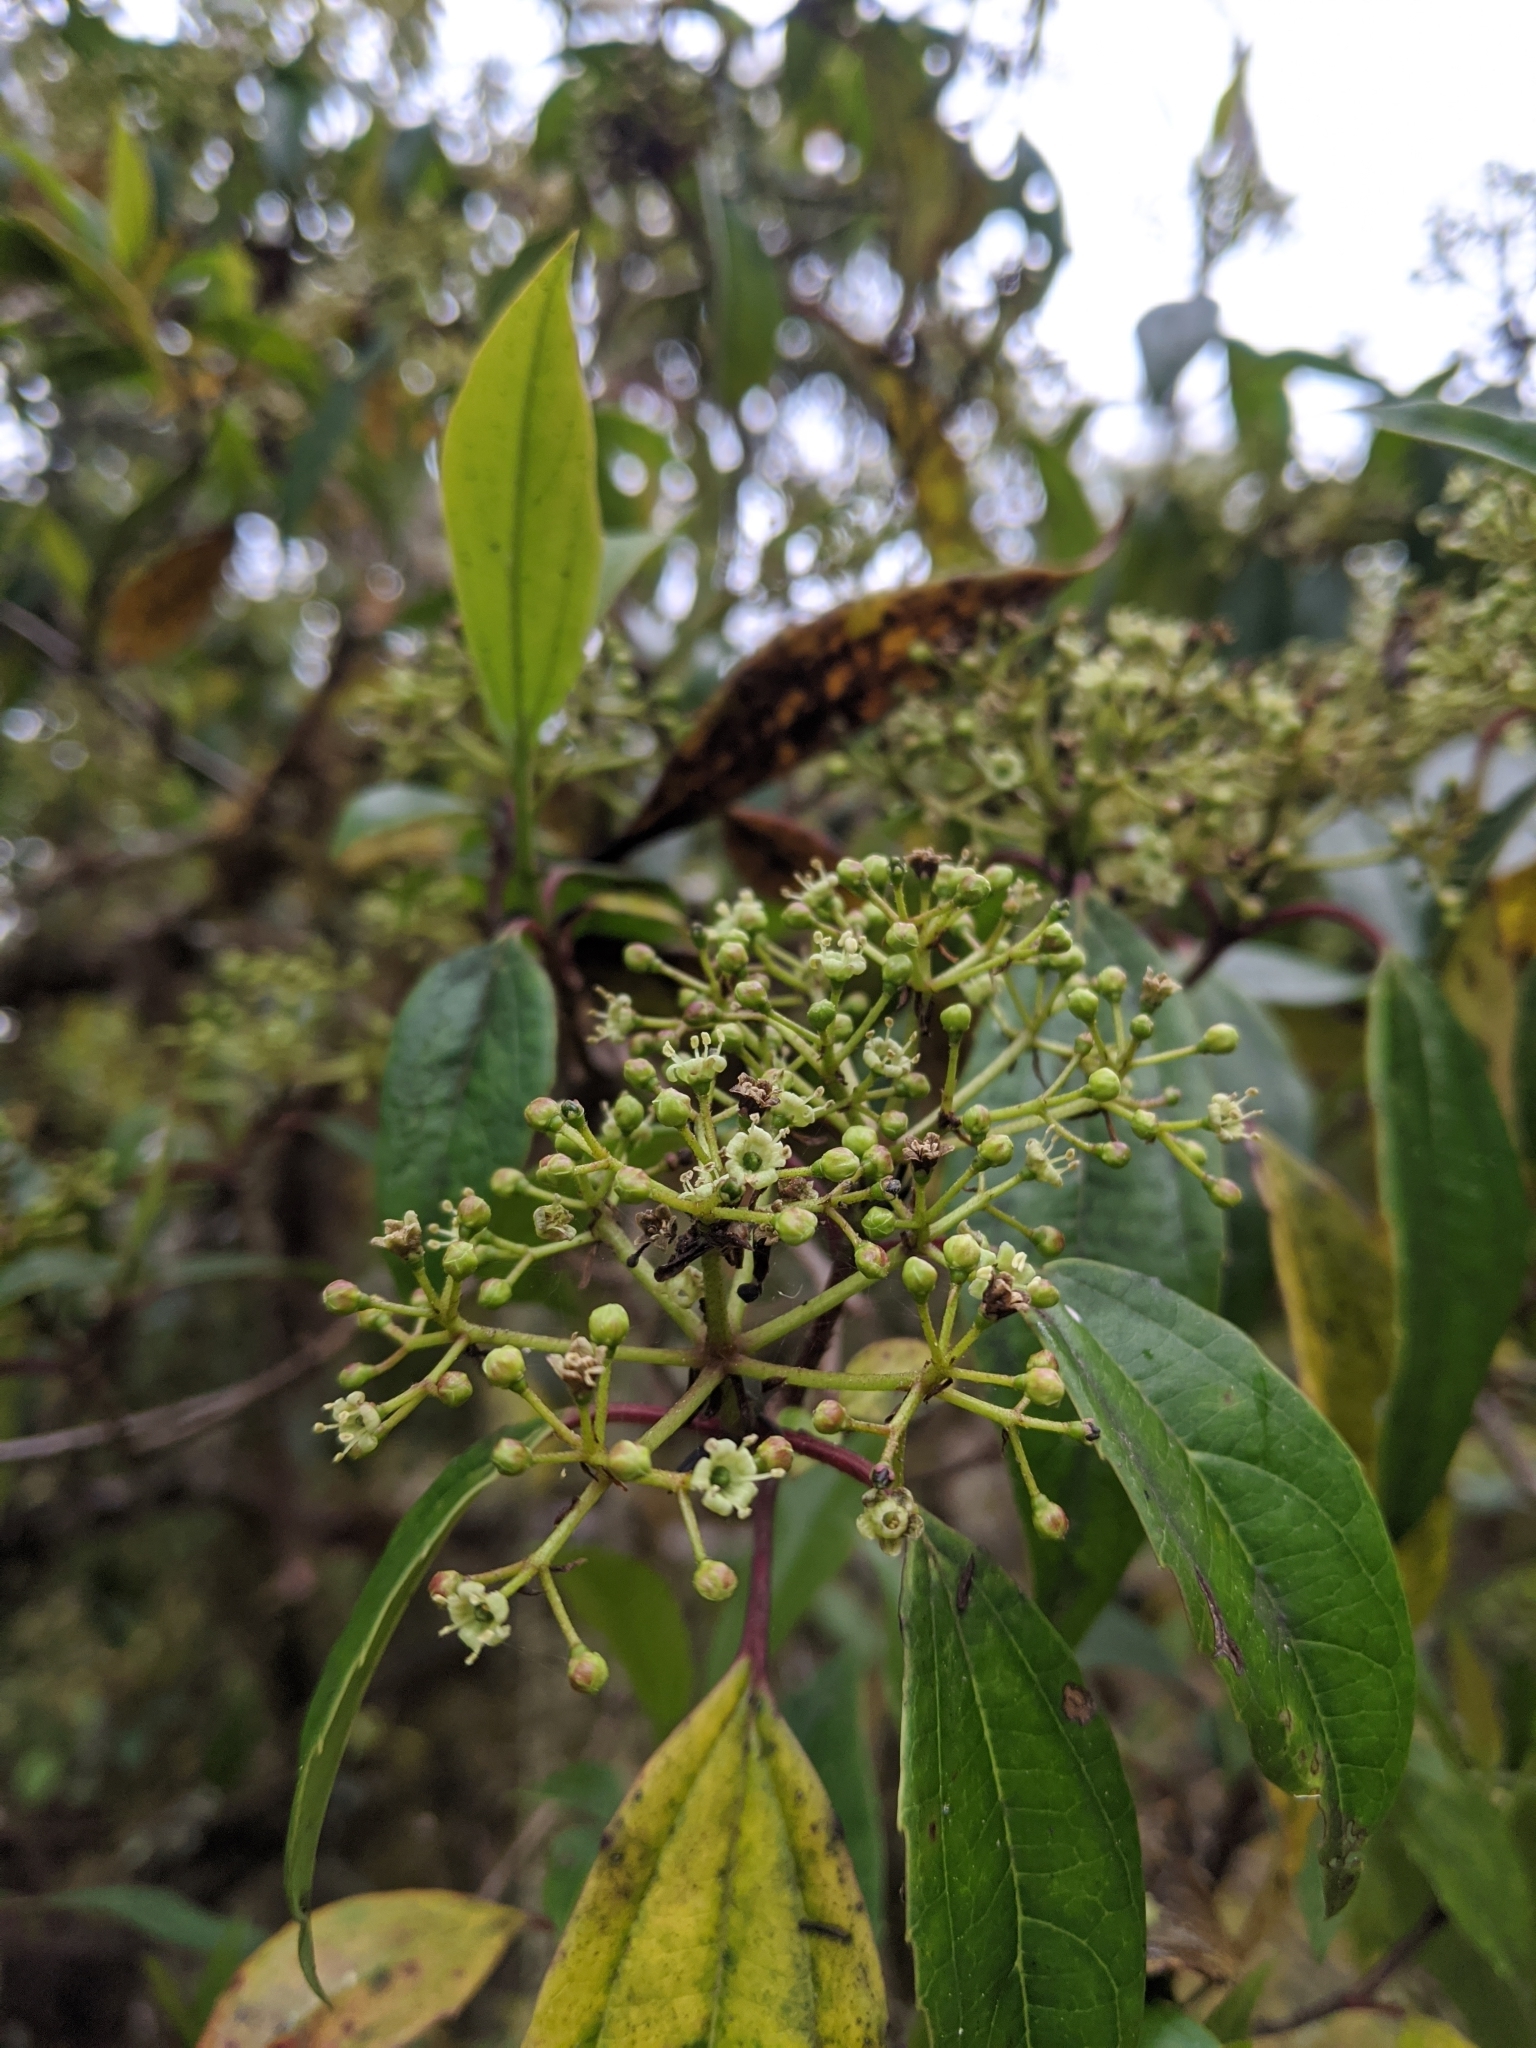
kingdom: Plantae
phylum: Tracheophyta
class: Magnoliopsida
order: Dipsacales
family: Viburnaceae
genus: Viburnum
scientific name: Viburnum propinquum
